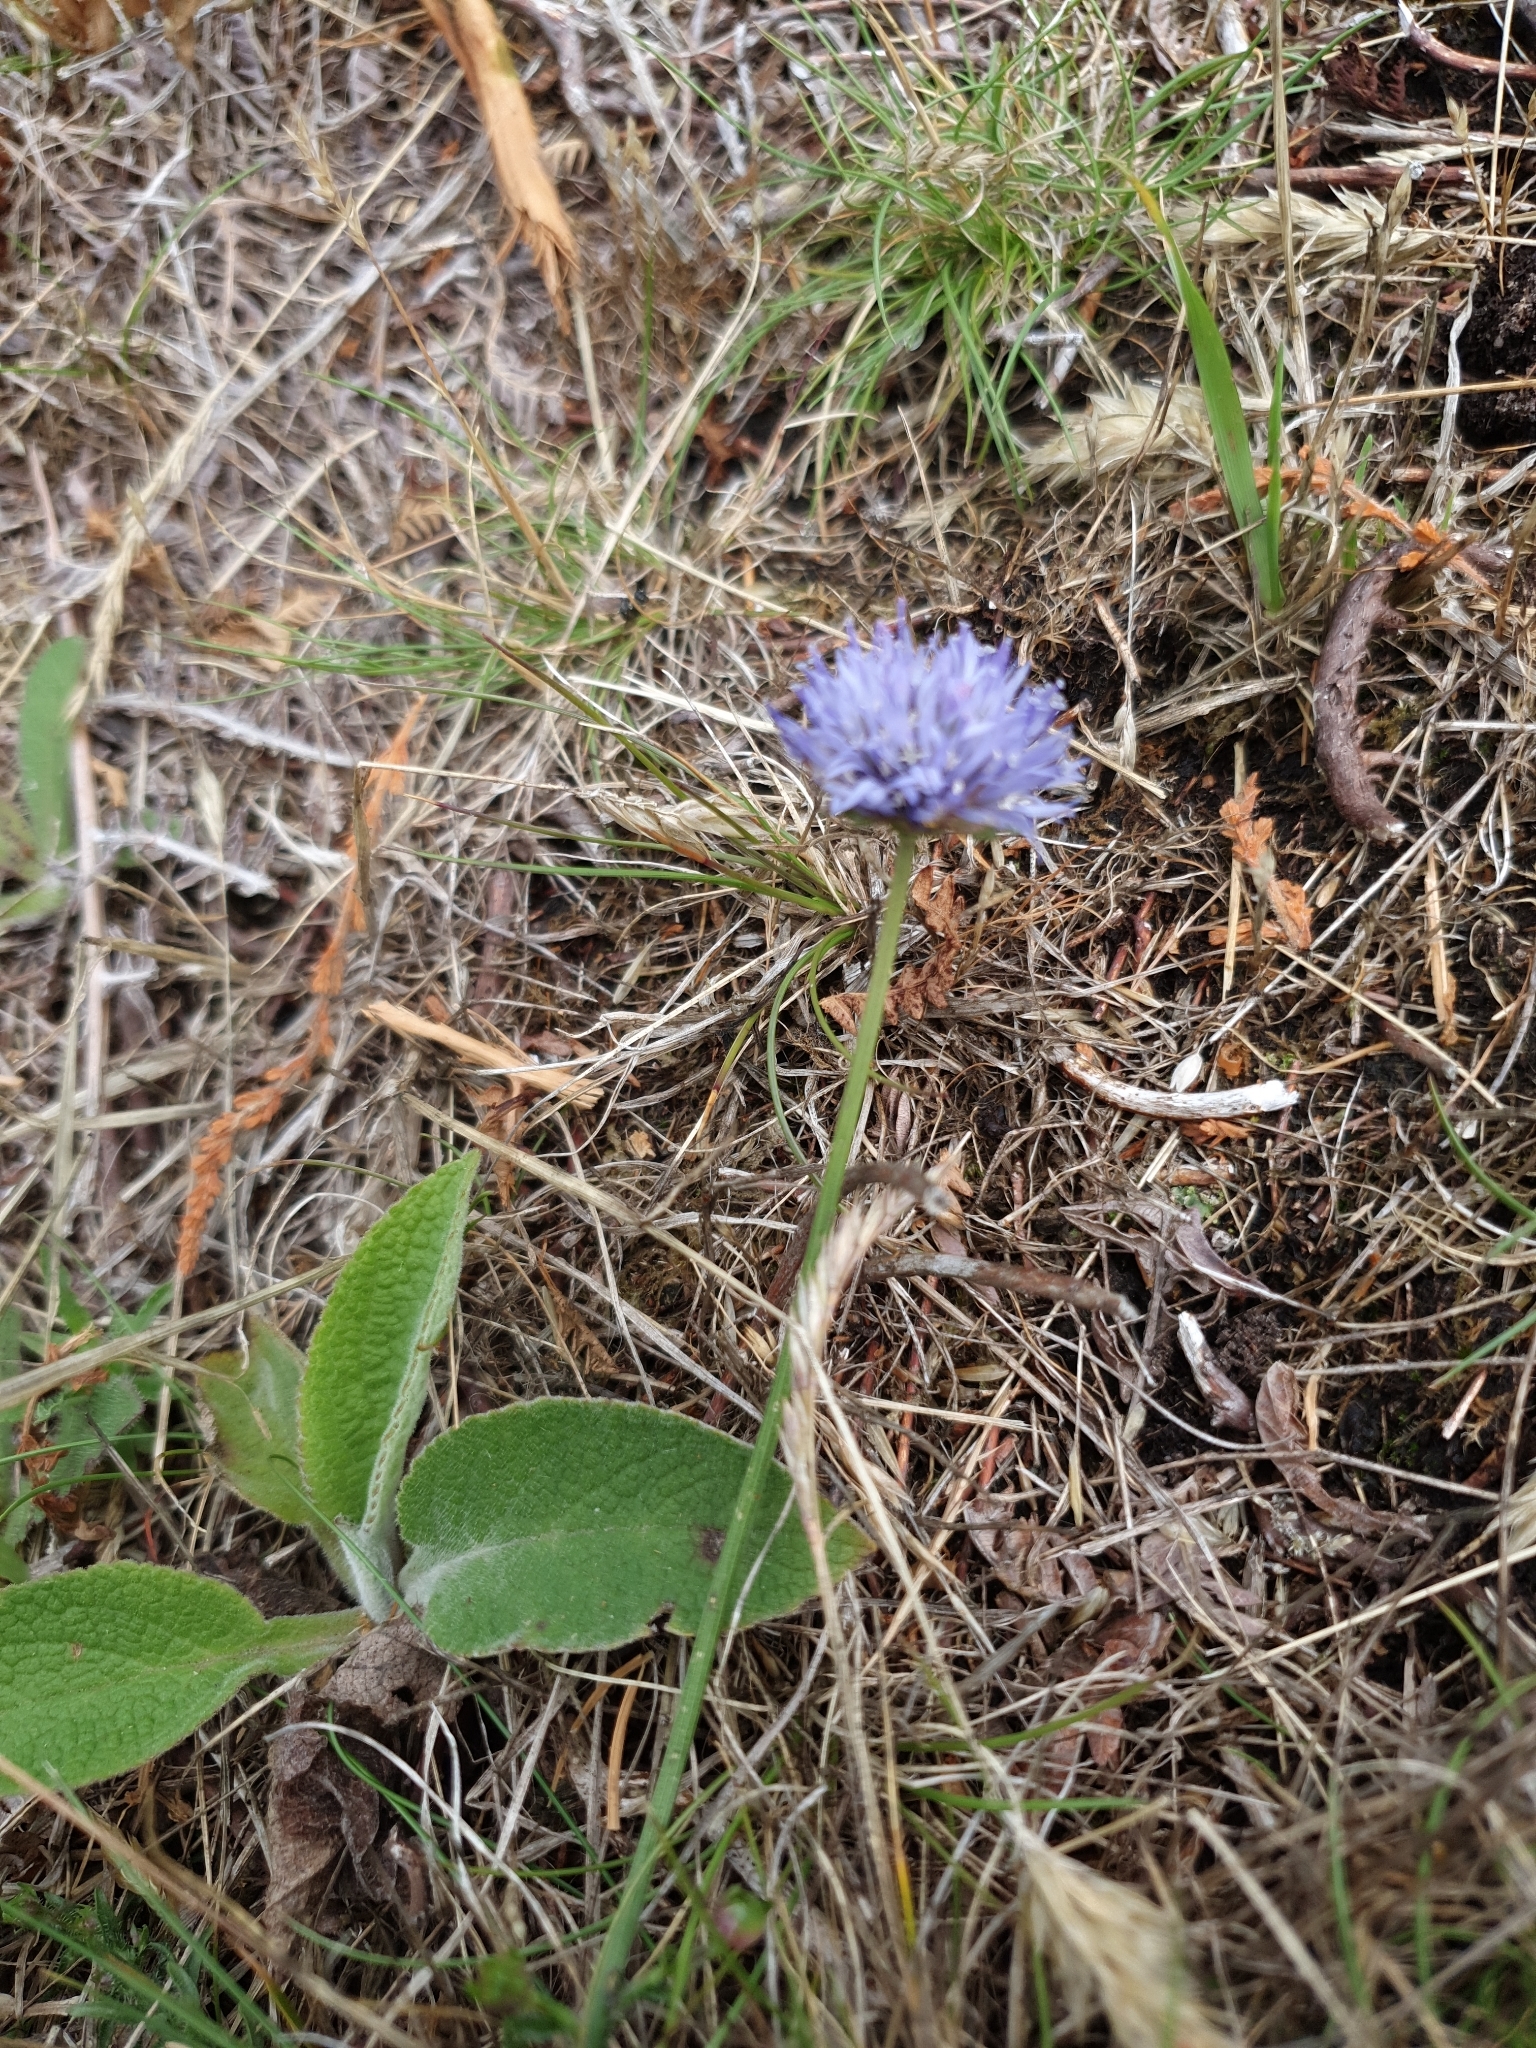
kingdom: Plantae
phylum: Tracheophyta
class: Magnoliopsida
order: Asterales
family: Campanulaceae
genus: Jasione
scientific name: Jasione montana
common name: Sheep's-bit
